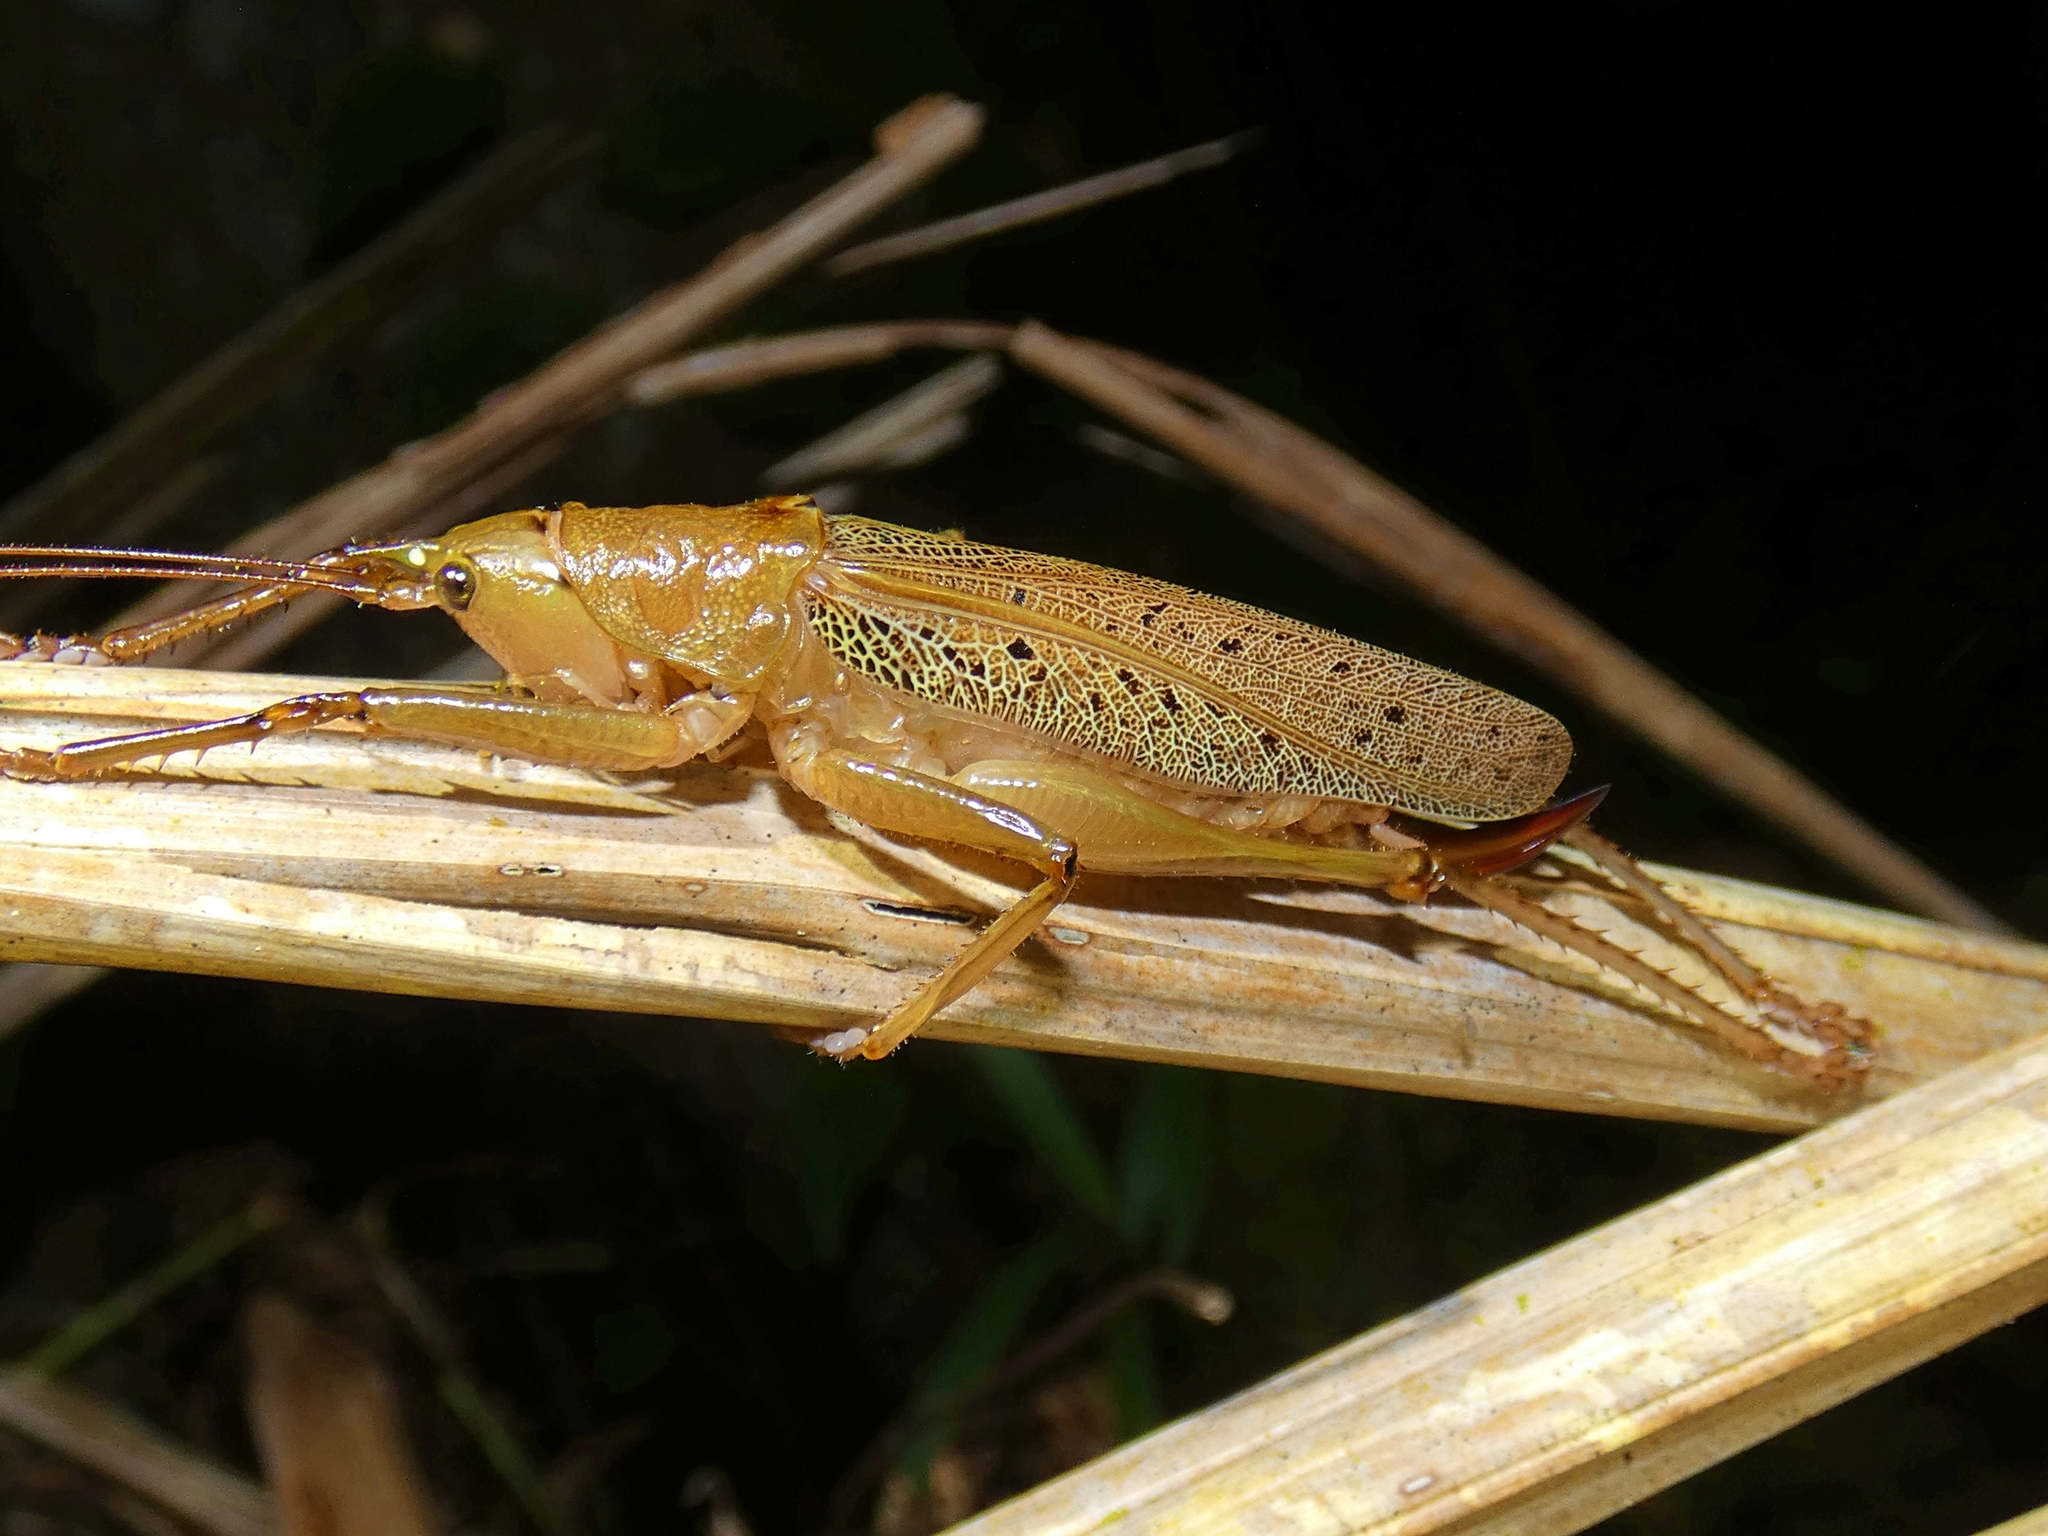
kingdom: Animalia
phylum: Arthropoda
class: Insecta
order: Orthoptera
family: Tettigoniidae
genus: Barbaragraecia
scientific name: Barbaragraecia richardsoni
